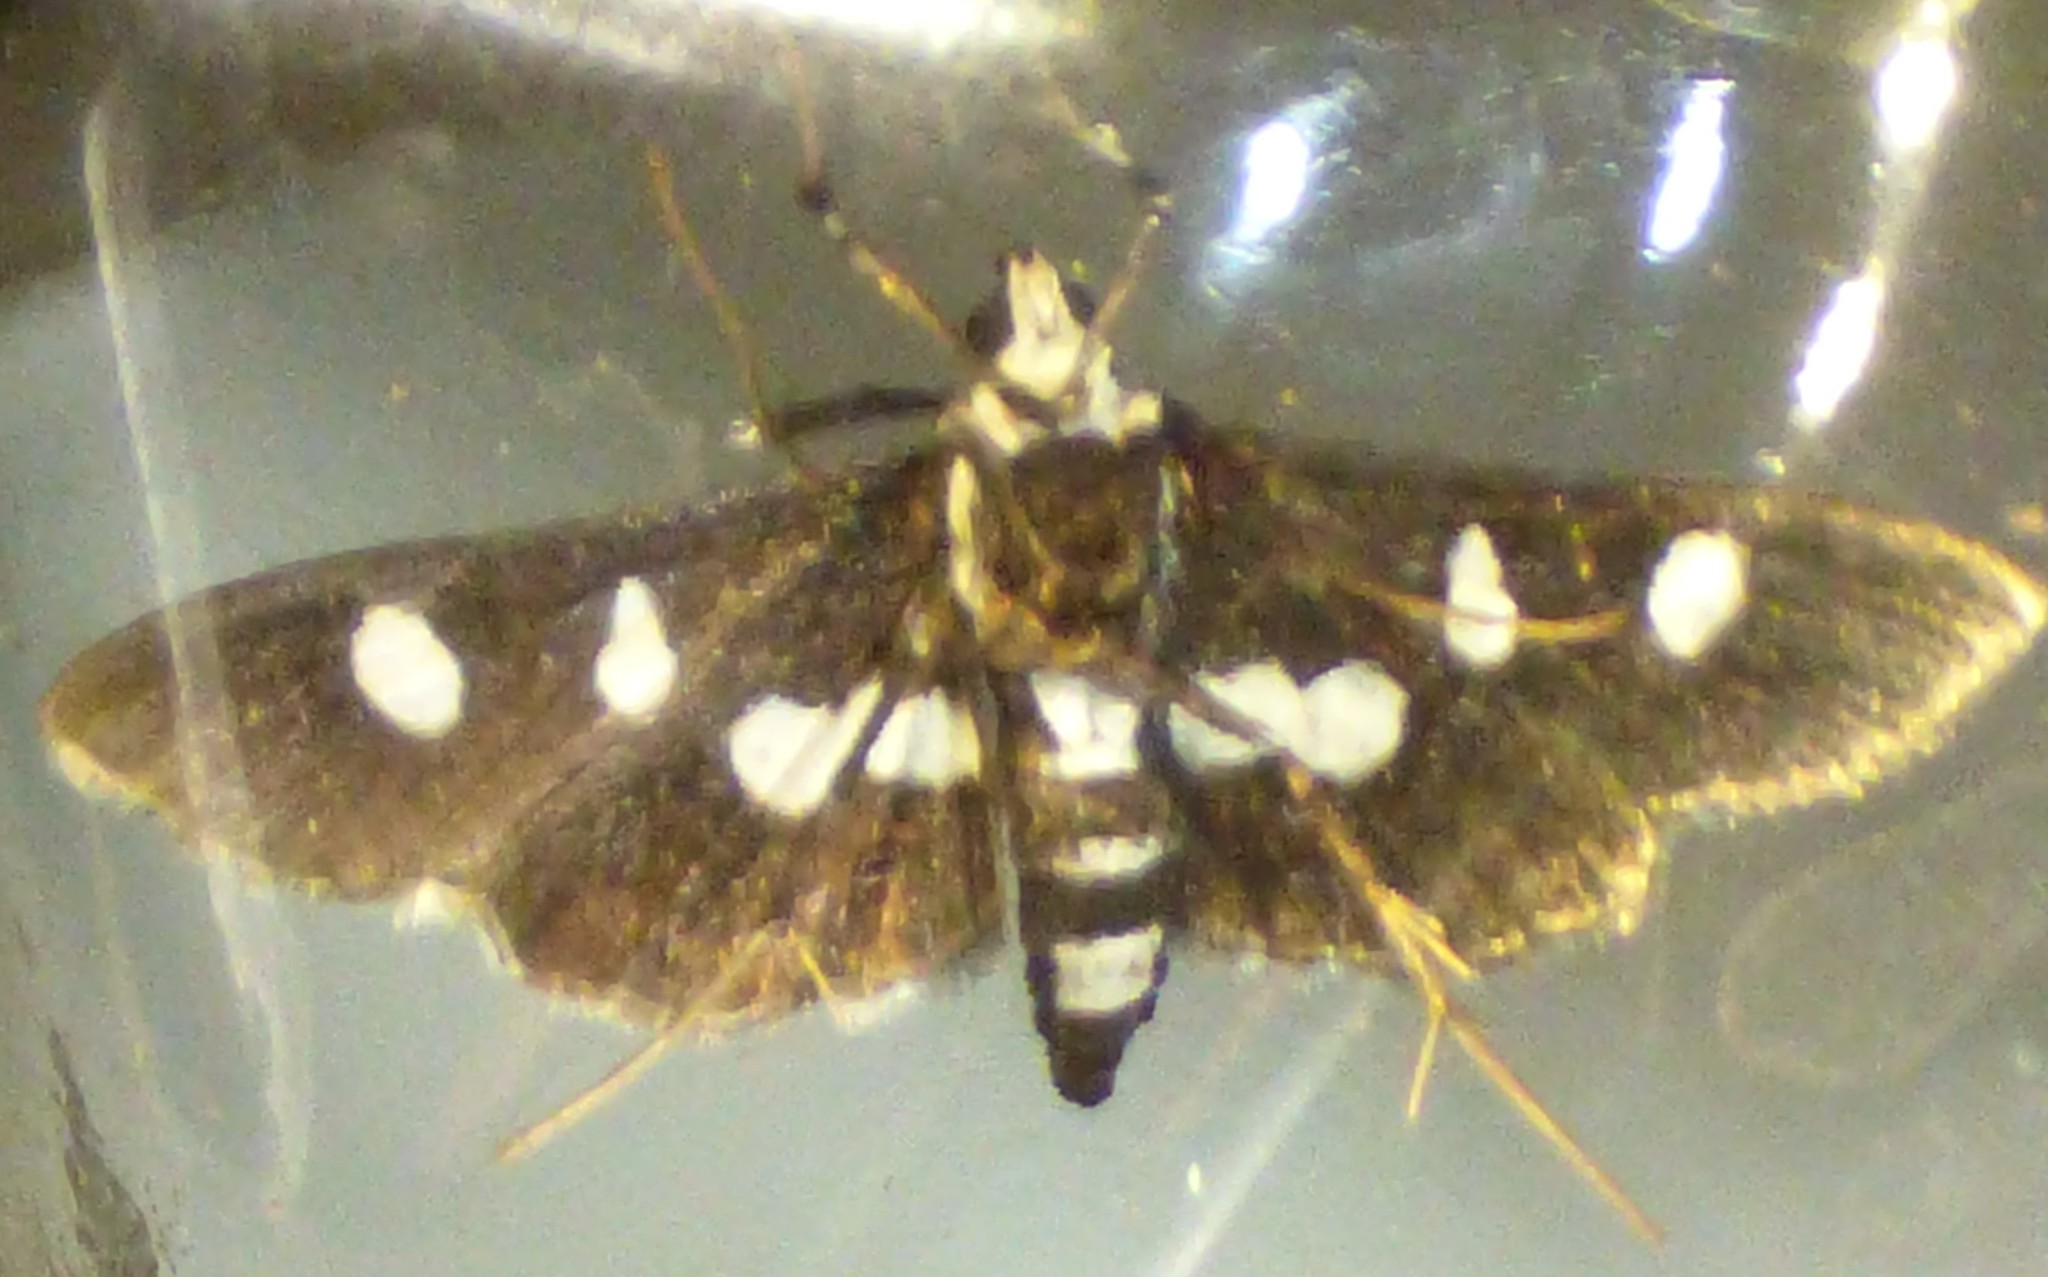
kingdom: Animalia
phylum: Arthropoda
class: Insecta
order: Lepidoptera
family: Crambidae
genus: Desmia
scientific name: Desmia funeralis
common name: Grape leaf folder moth
